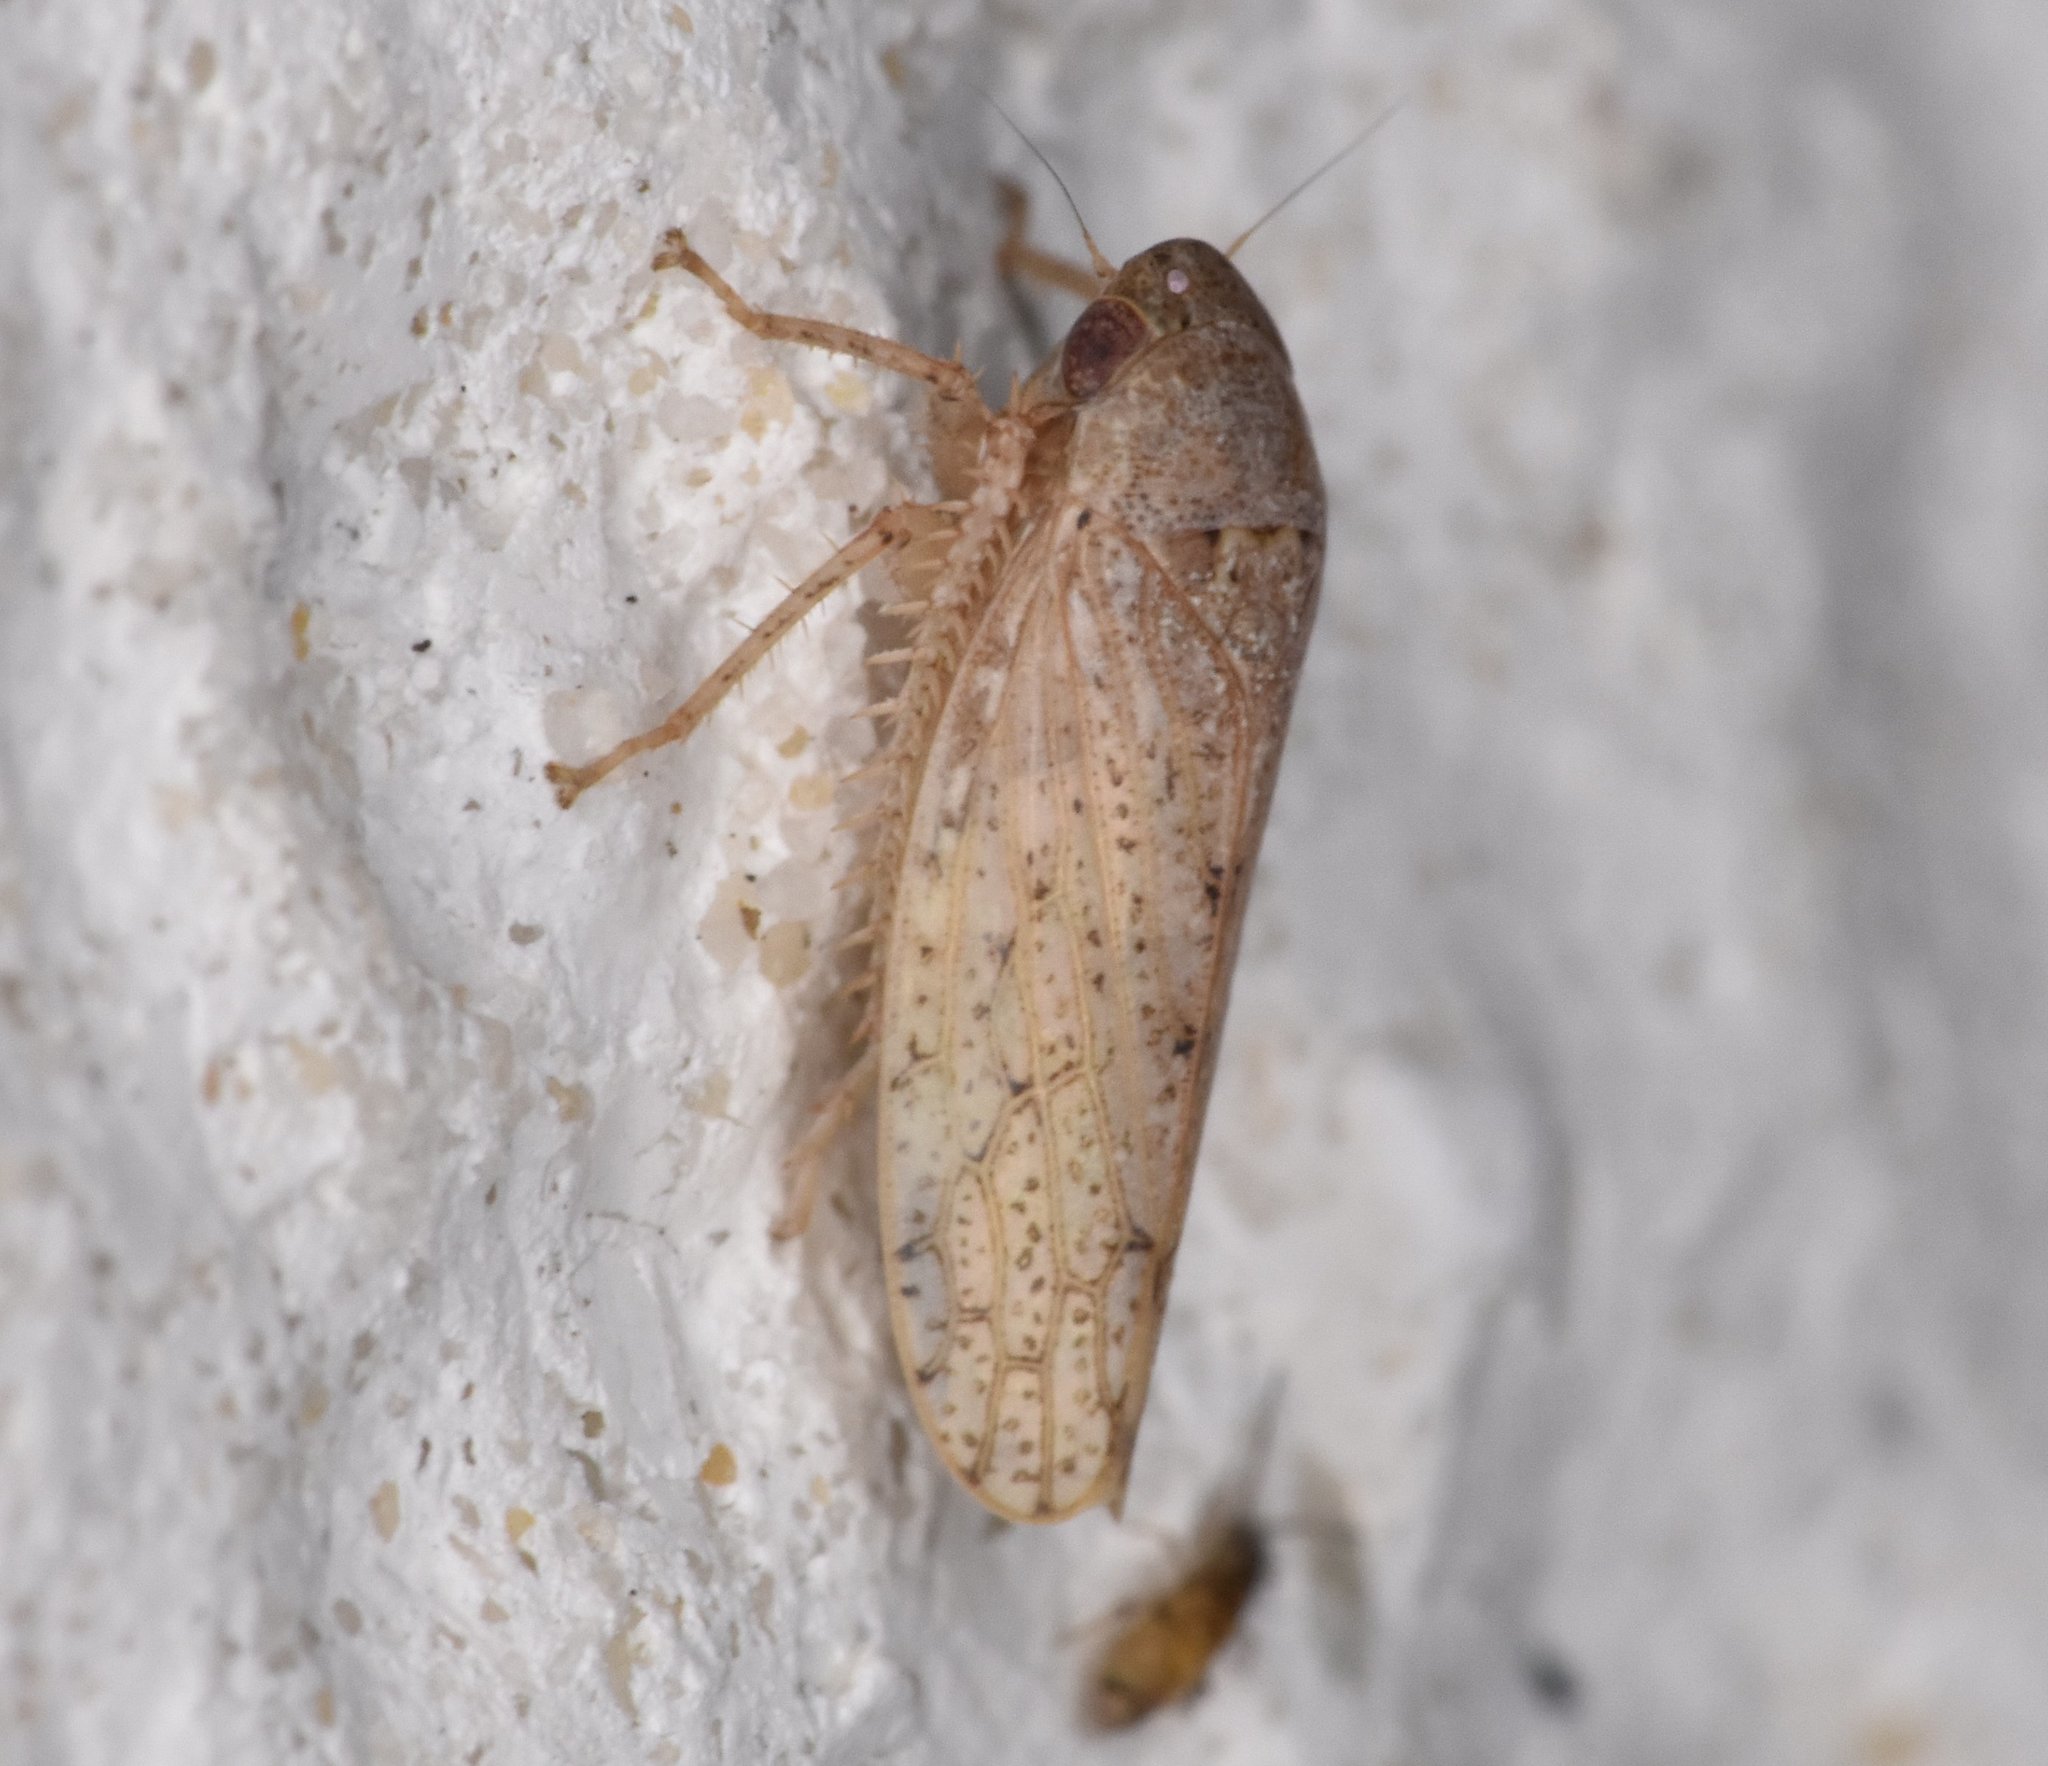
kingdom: Animalia
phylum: Arthropoda
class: Insecta
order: Hemiptera
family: Cicadellidae
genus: Curtara
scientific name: Curtara insularis
